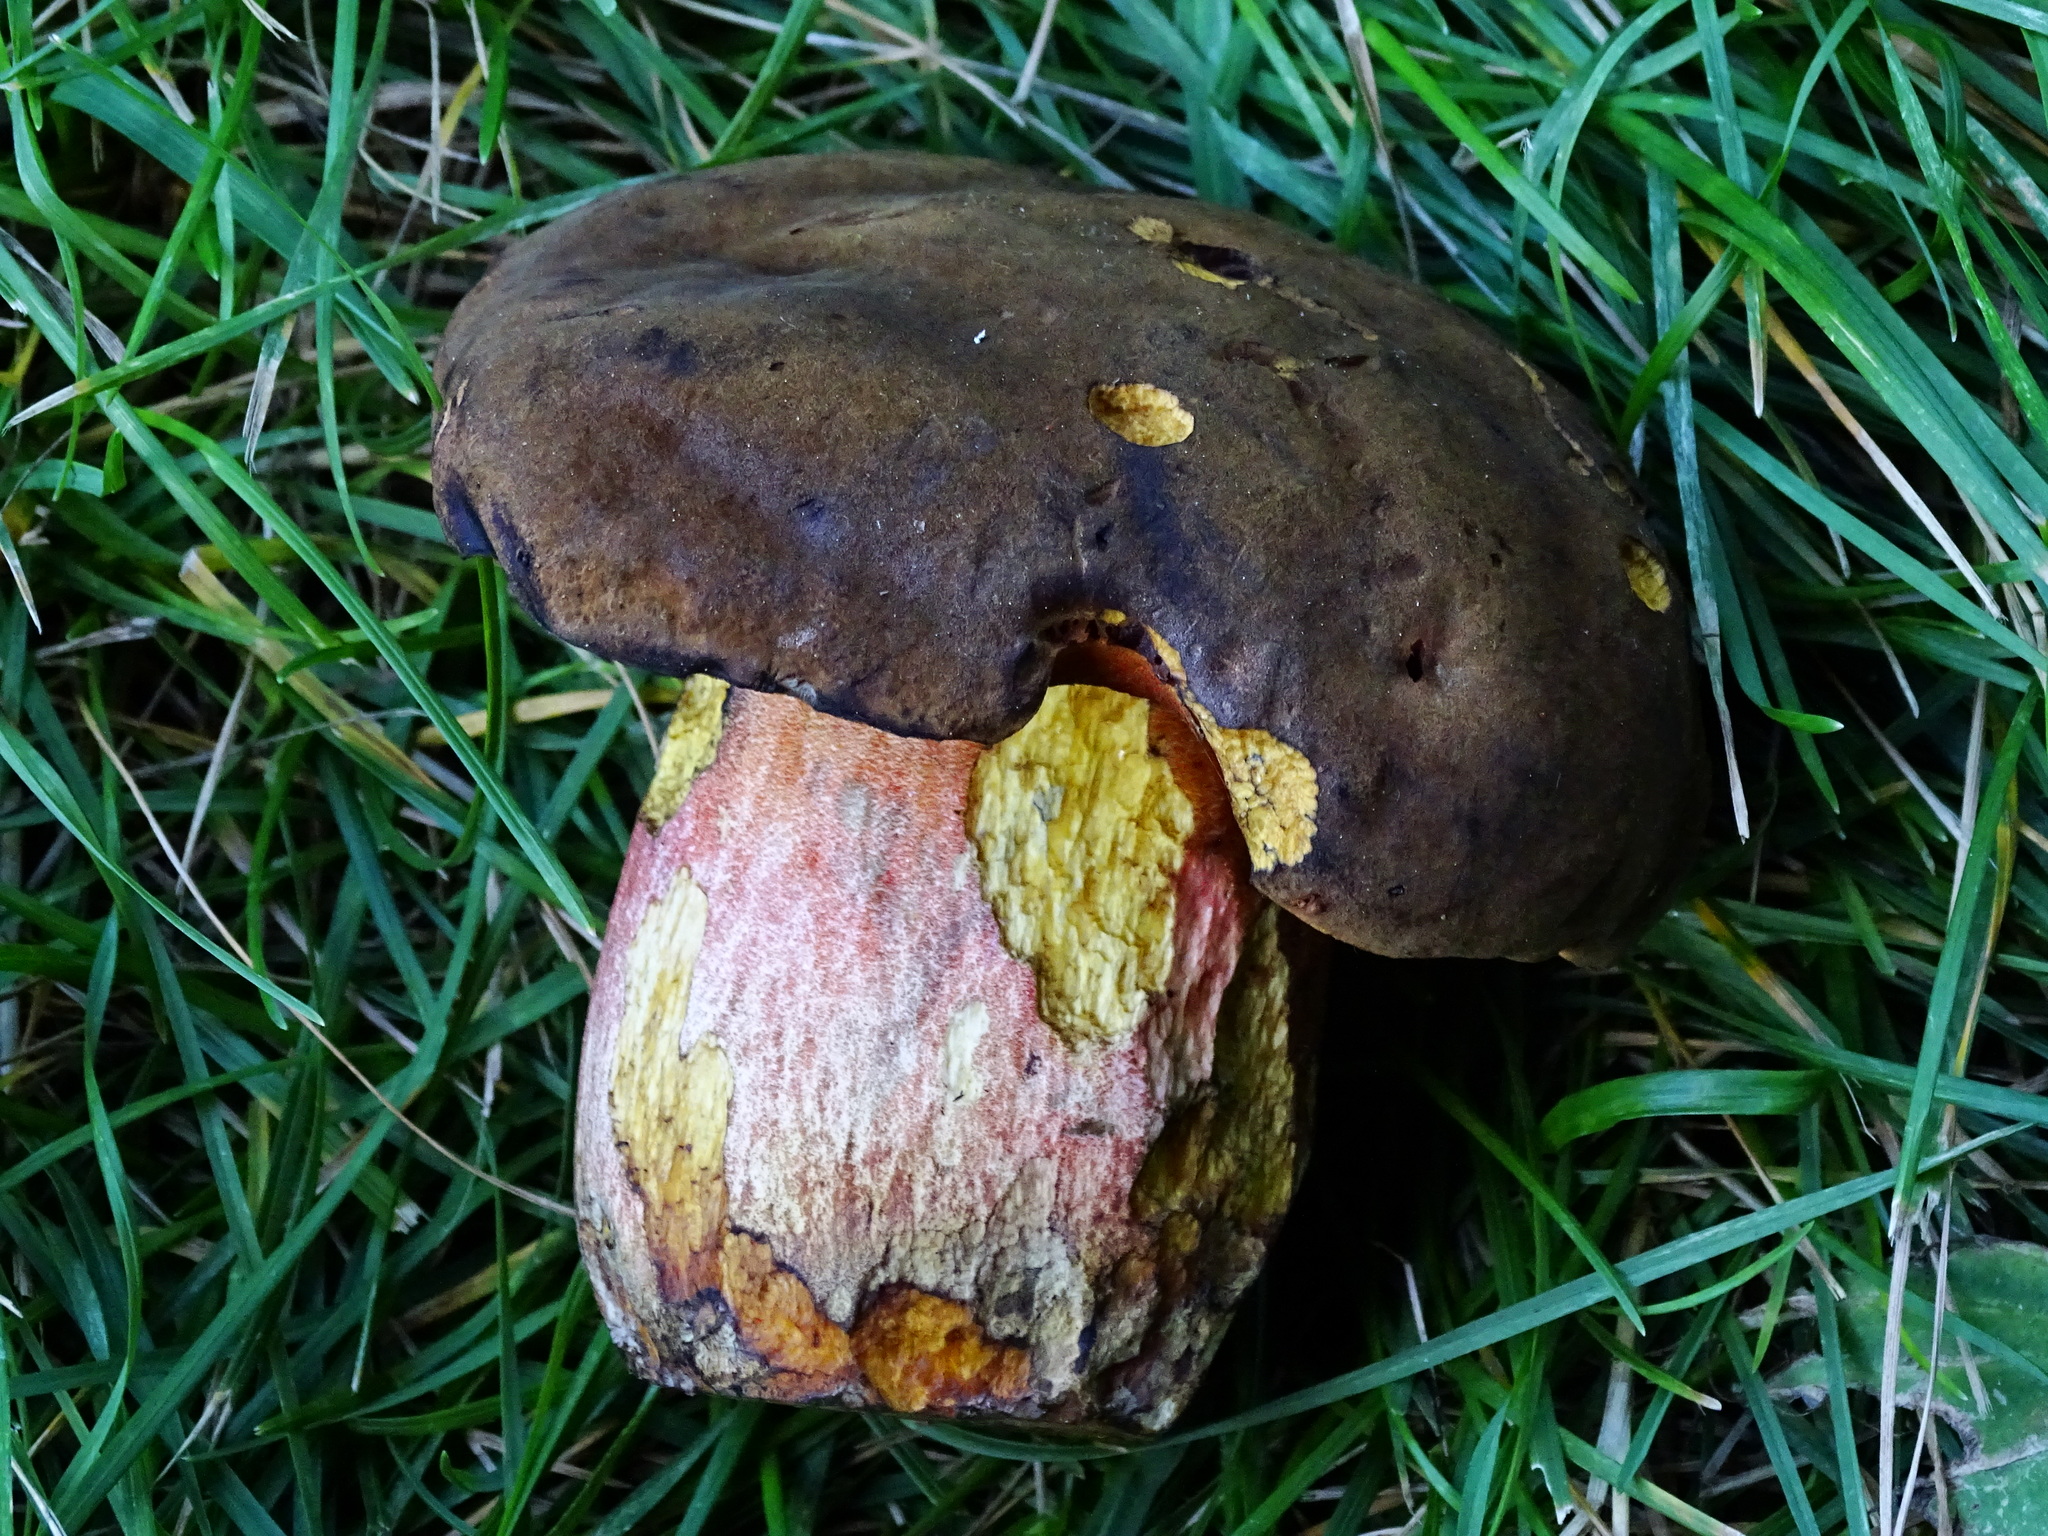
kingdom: Fungi
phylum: Basidiomycota
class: Agaricomycetes
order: Boletales
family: Boletaceae
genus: Neoboletus
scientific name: Neoboletus erythropus
